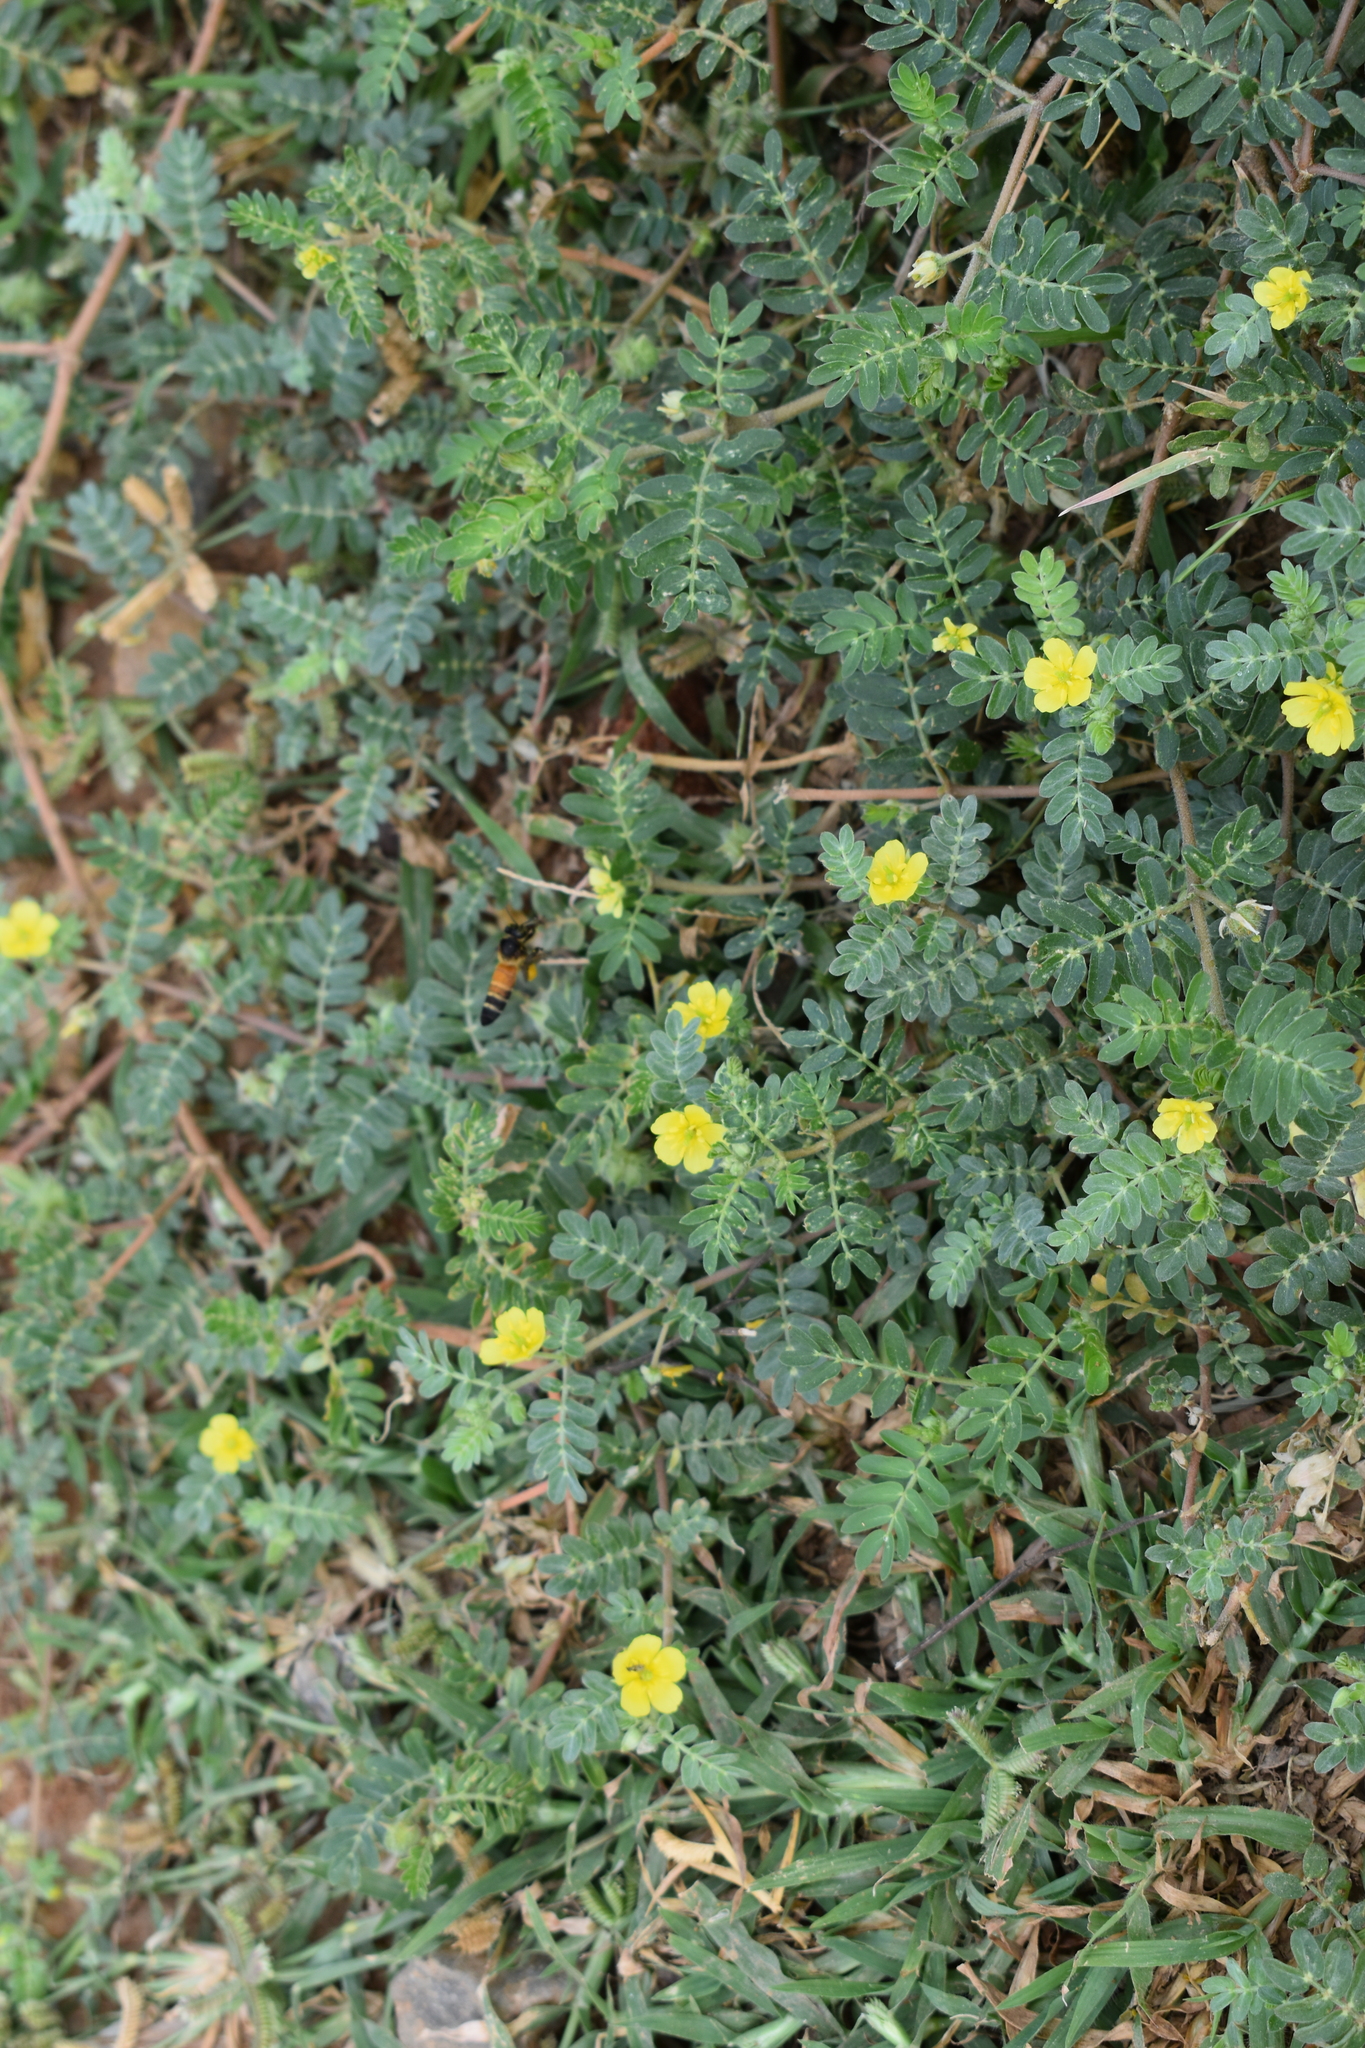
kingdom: Plantae
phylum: Tracheophyta
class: Magnoliopsida
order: Zygophyllales
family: Zygophyllaceae
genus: Tribulus
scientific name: Tribulus terrestris
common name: Puncturevine
